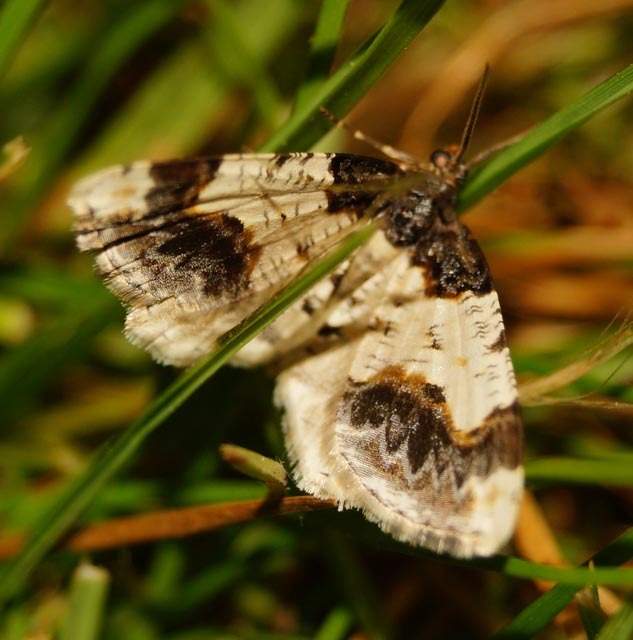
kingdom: Animalia
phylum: Arthropoda
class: Insecta
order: Lepidoptera
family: Geometridae
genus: Ligdia
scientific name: Ligdia adustata
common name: Scorched carpet
